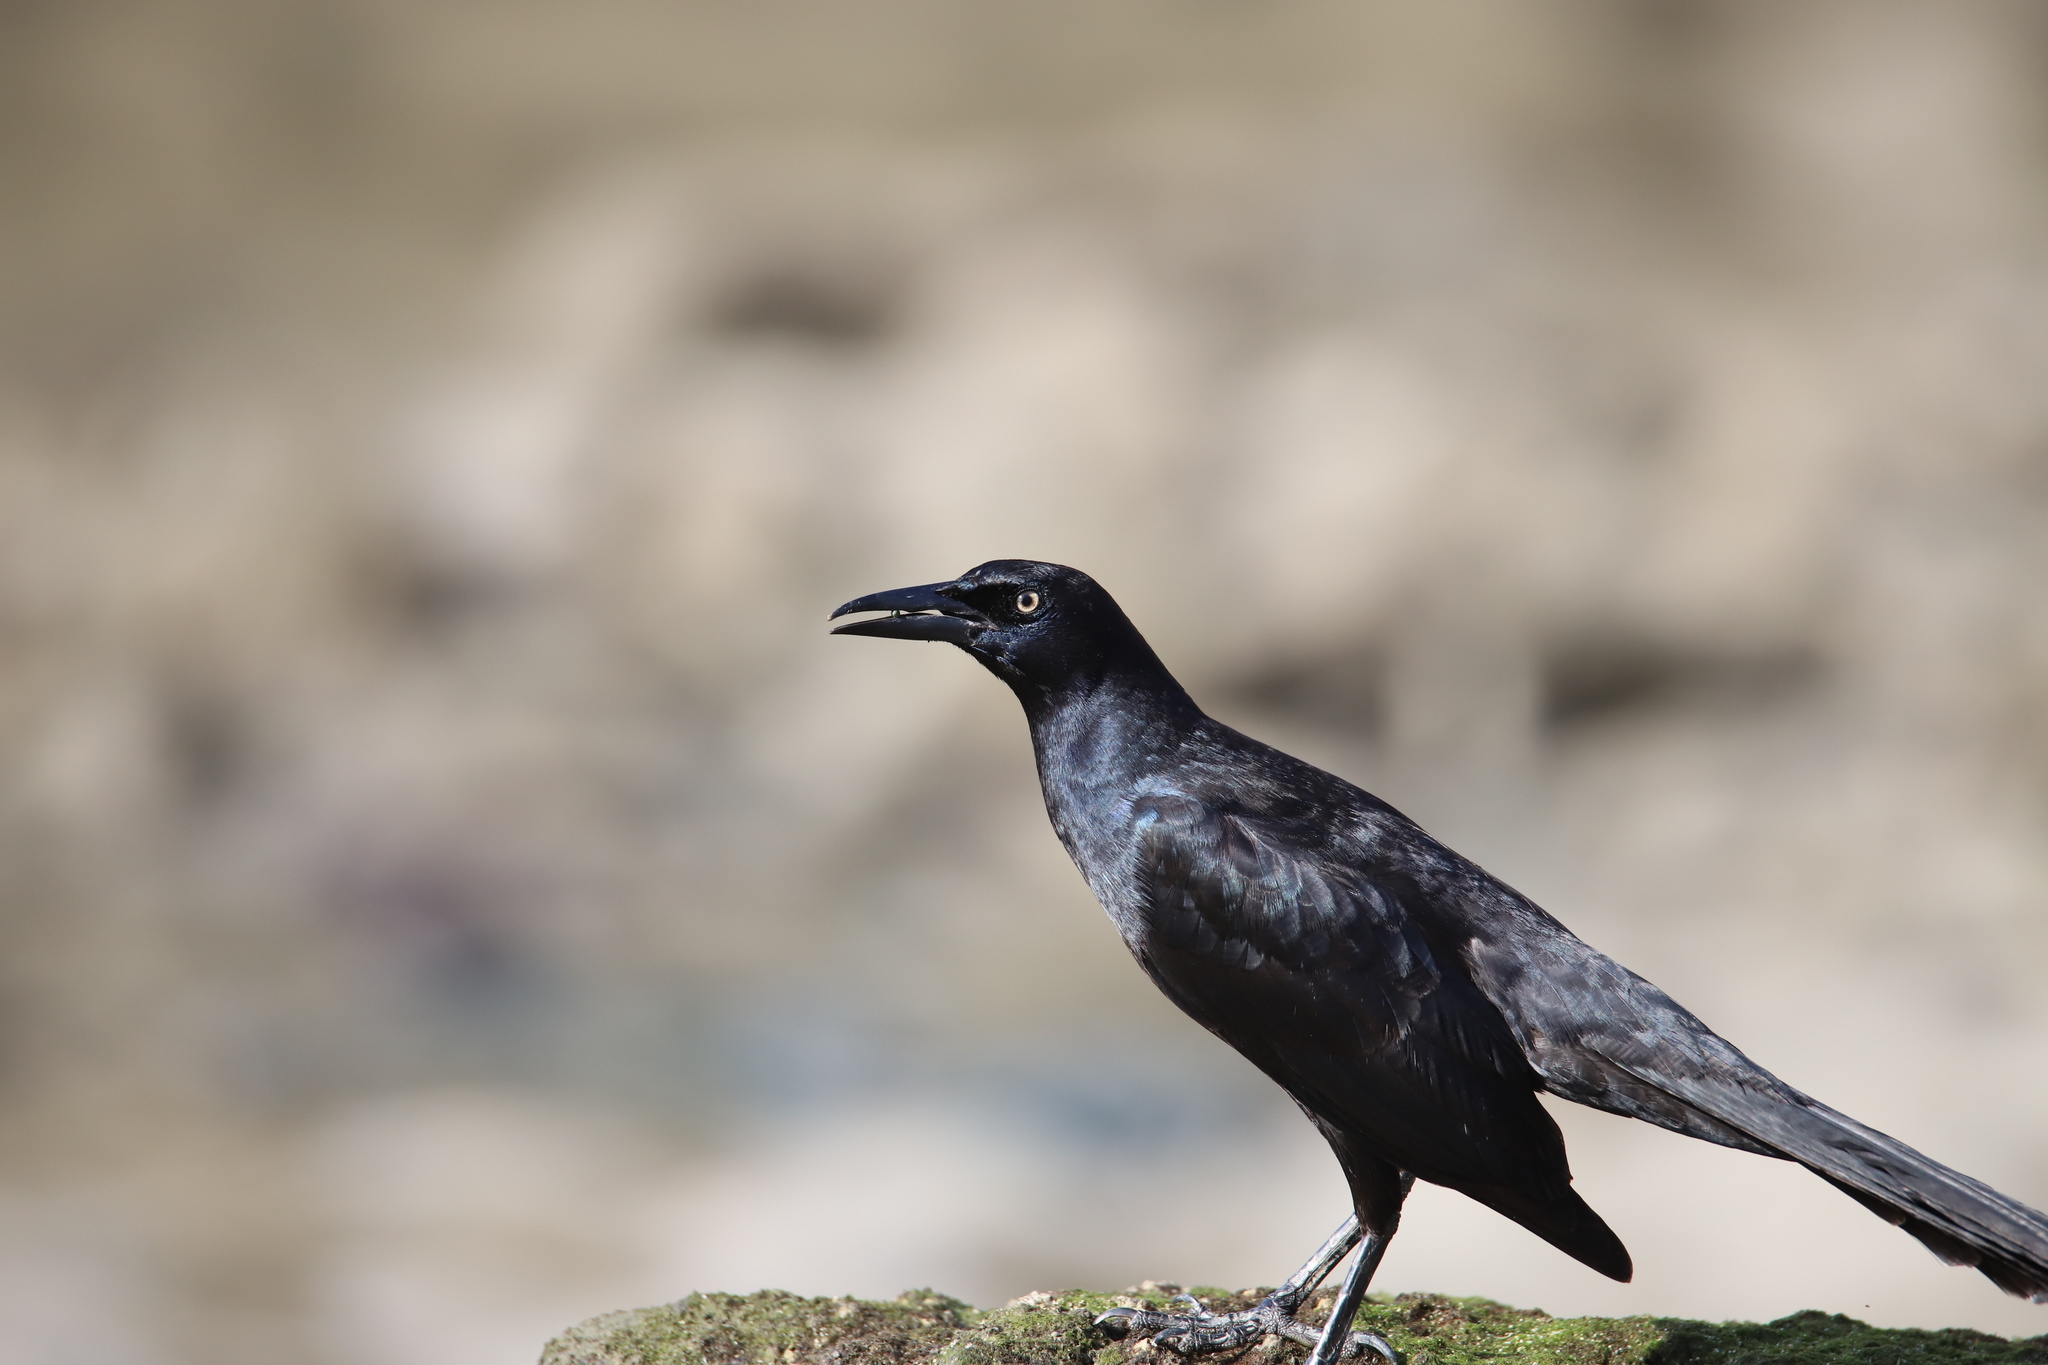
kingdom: Animalia
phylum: Chordata
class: Aves
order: Passeriformes
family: Icteridae
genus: Quiscalus
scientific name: Quiscalus mexicanus
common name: Great-tailed grackle
